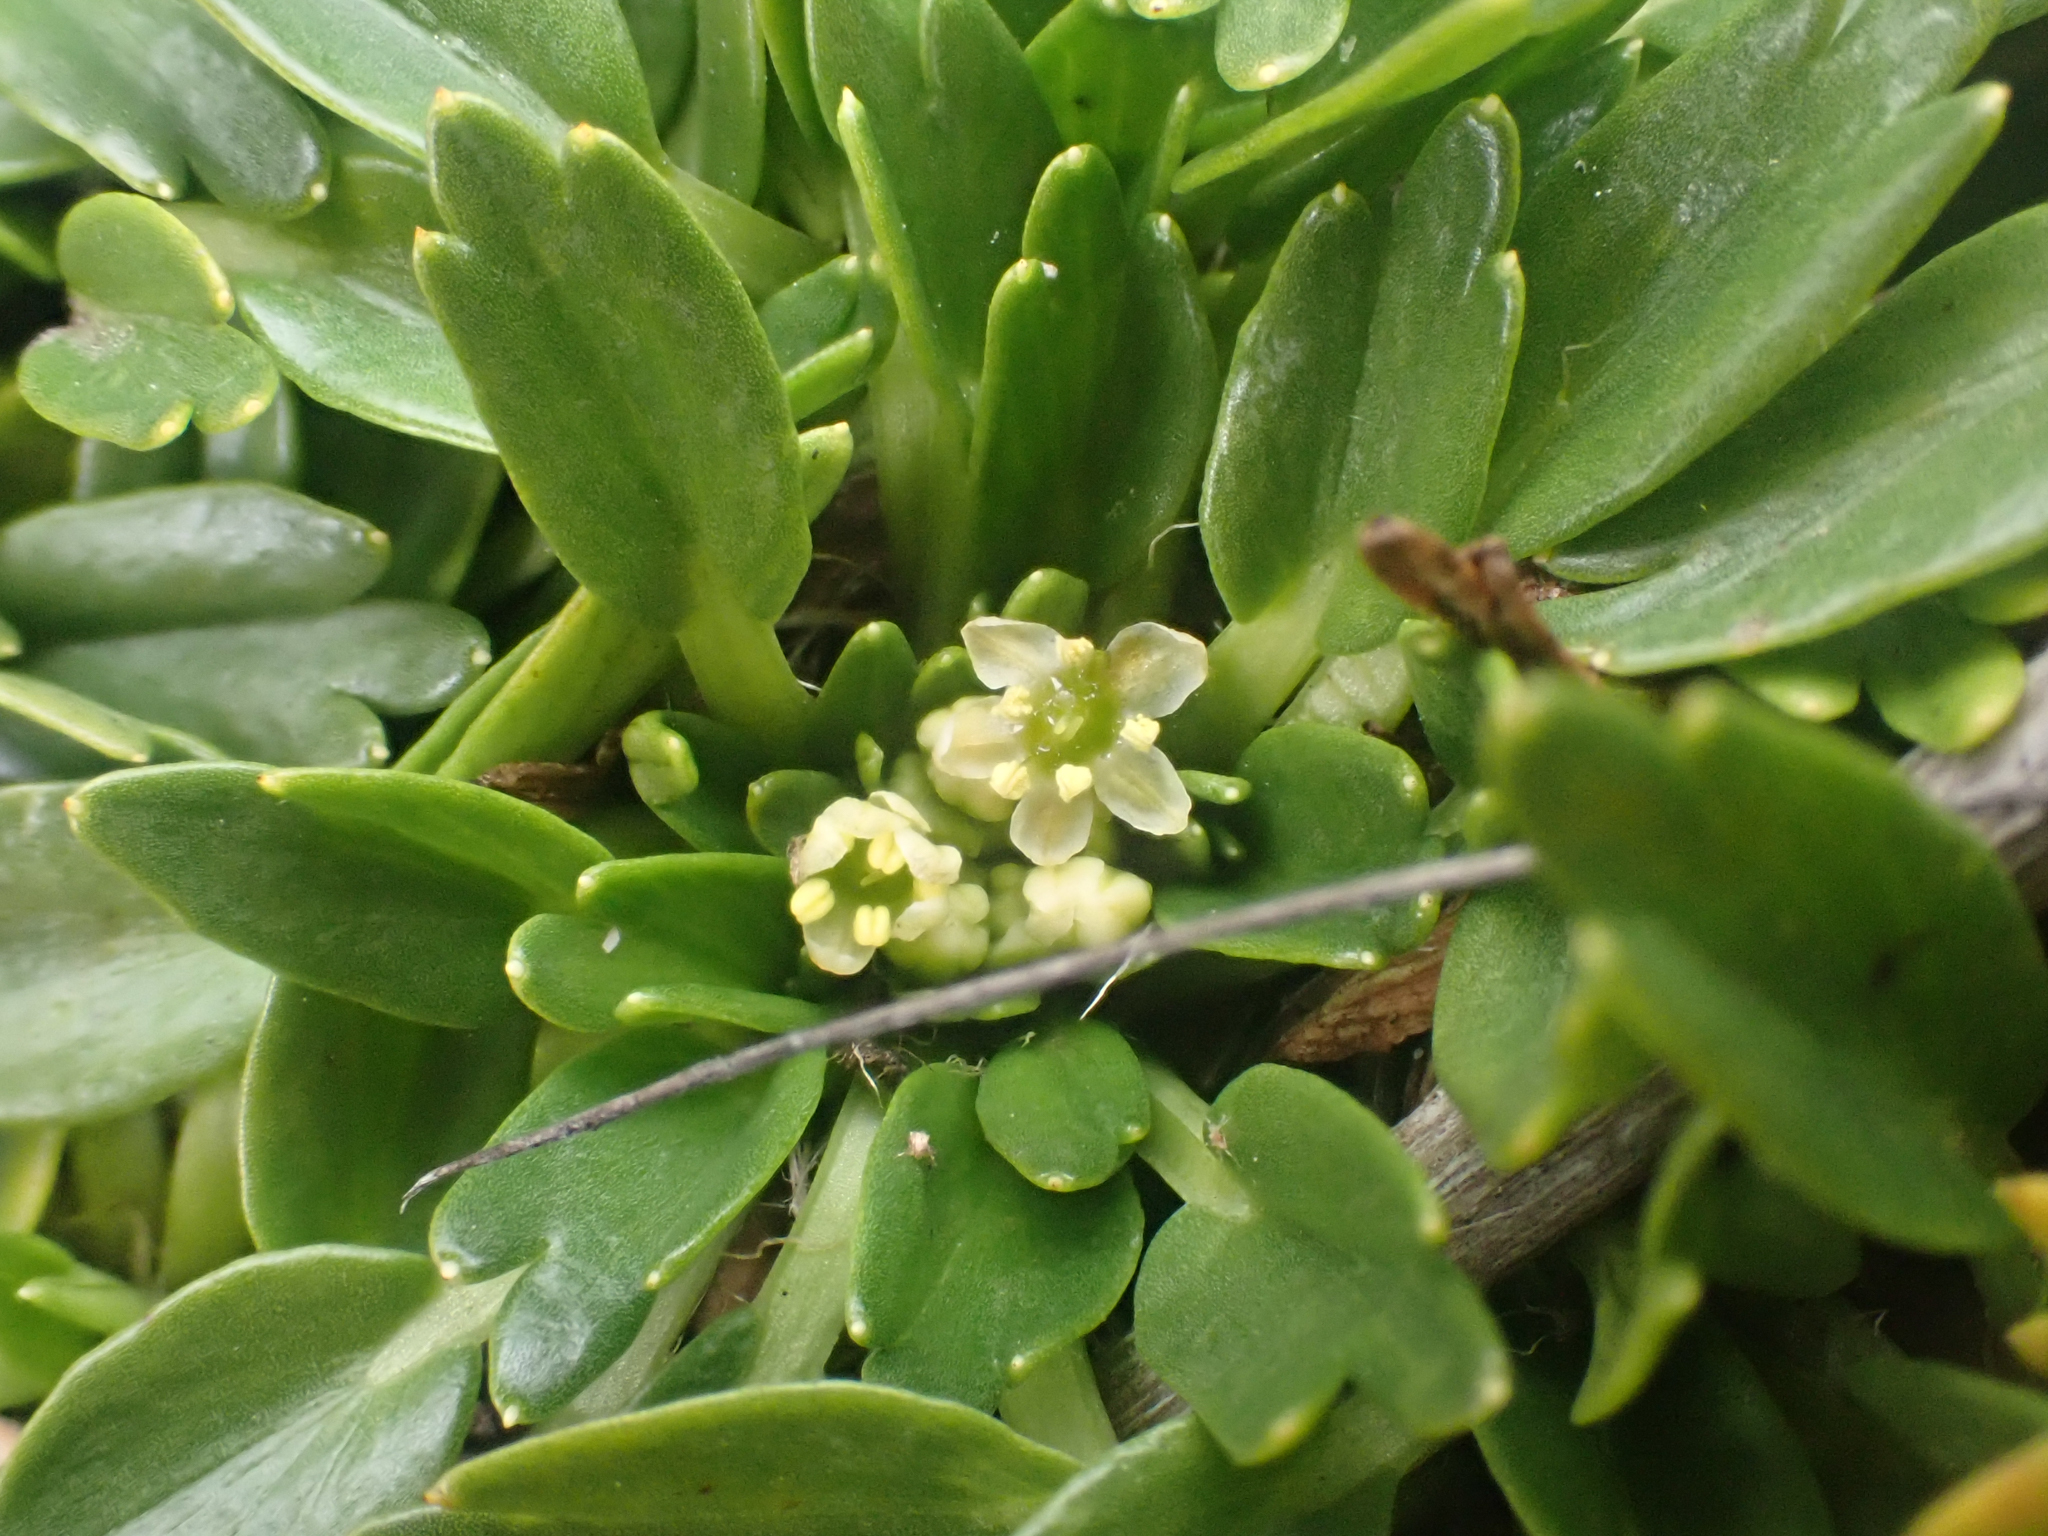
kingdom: Plantae
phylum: Tracheophyta
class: Magnoliopsida
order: Apiales
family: Apiaceae
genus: Azorella
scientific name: Azorella aretioides
